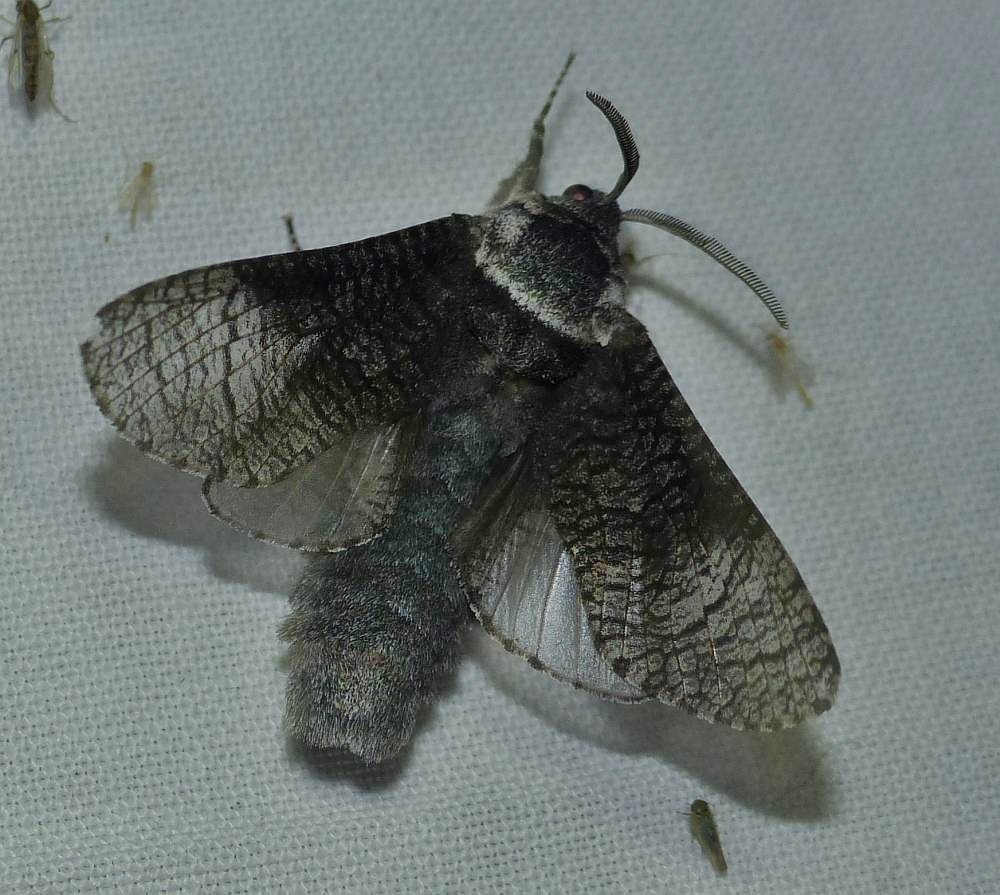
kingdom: Animalia
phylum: Arthropoda
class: Insecta
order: Lepidoptera
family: Cossidae
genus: Acossus
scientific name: Acossus centerensis
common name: Poplar carpenterworm moth
